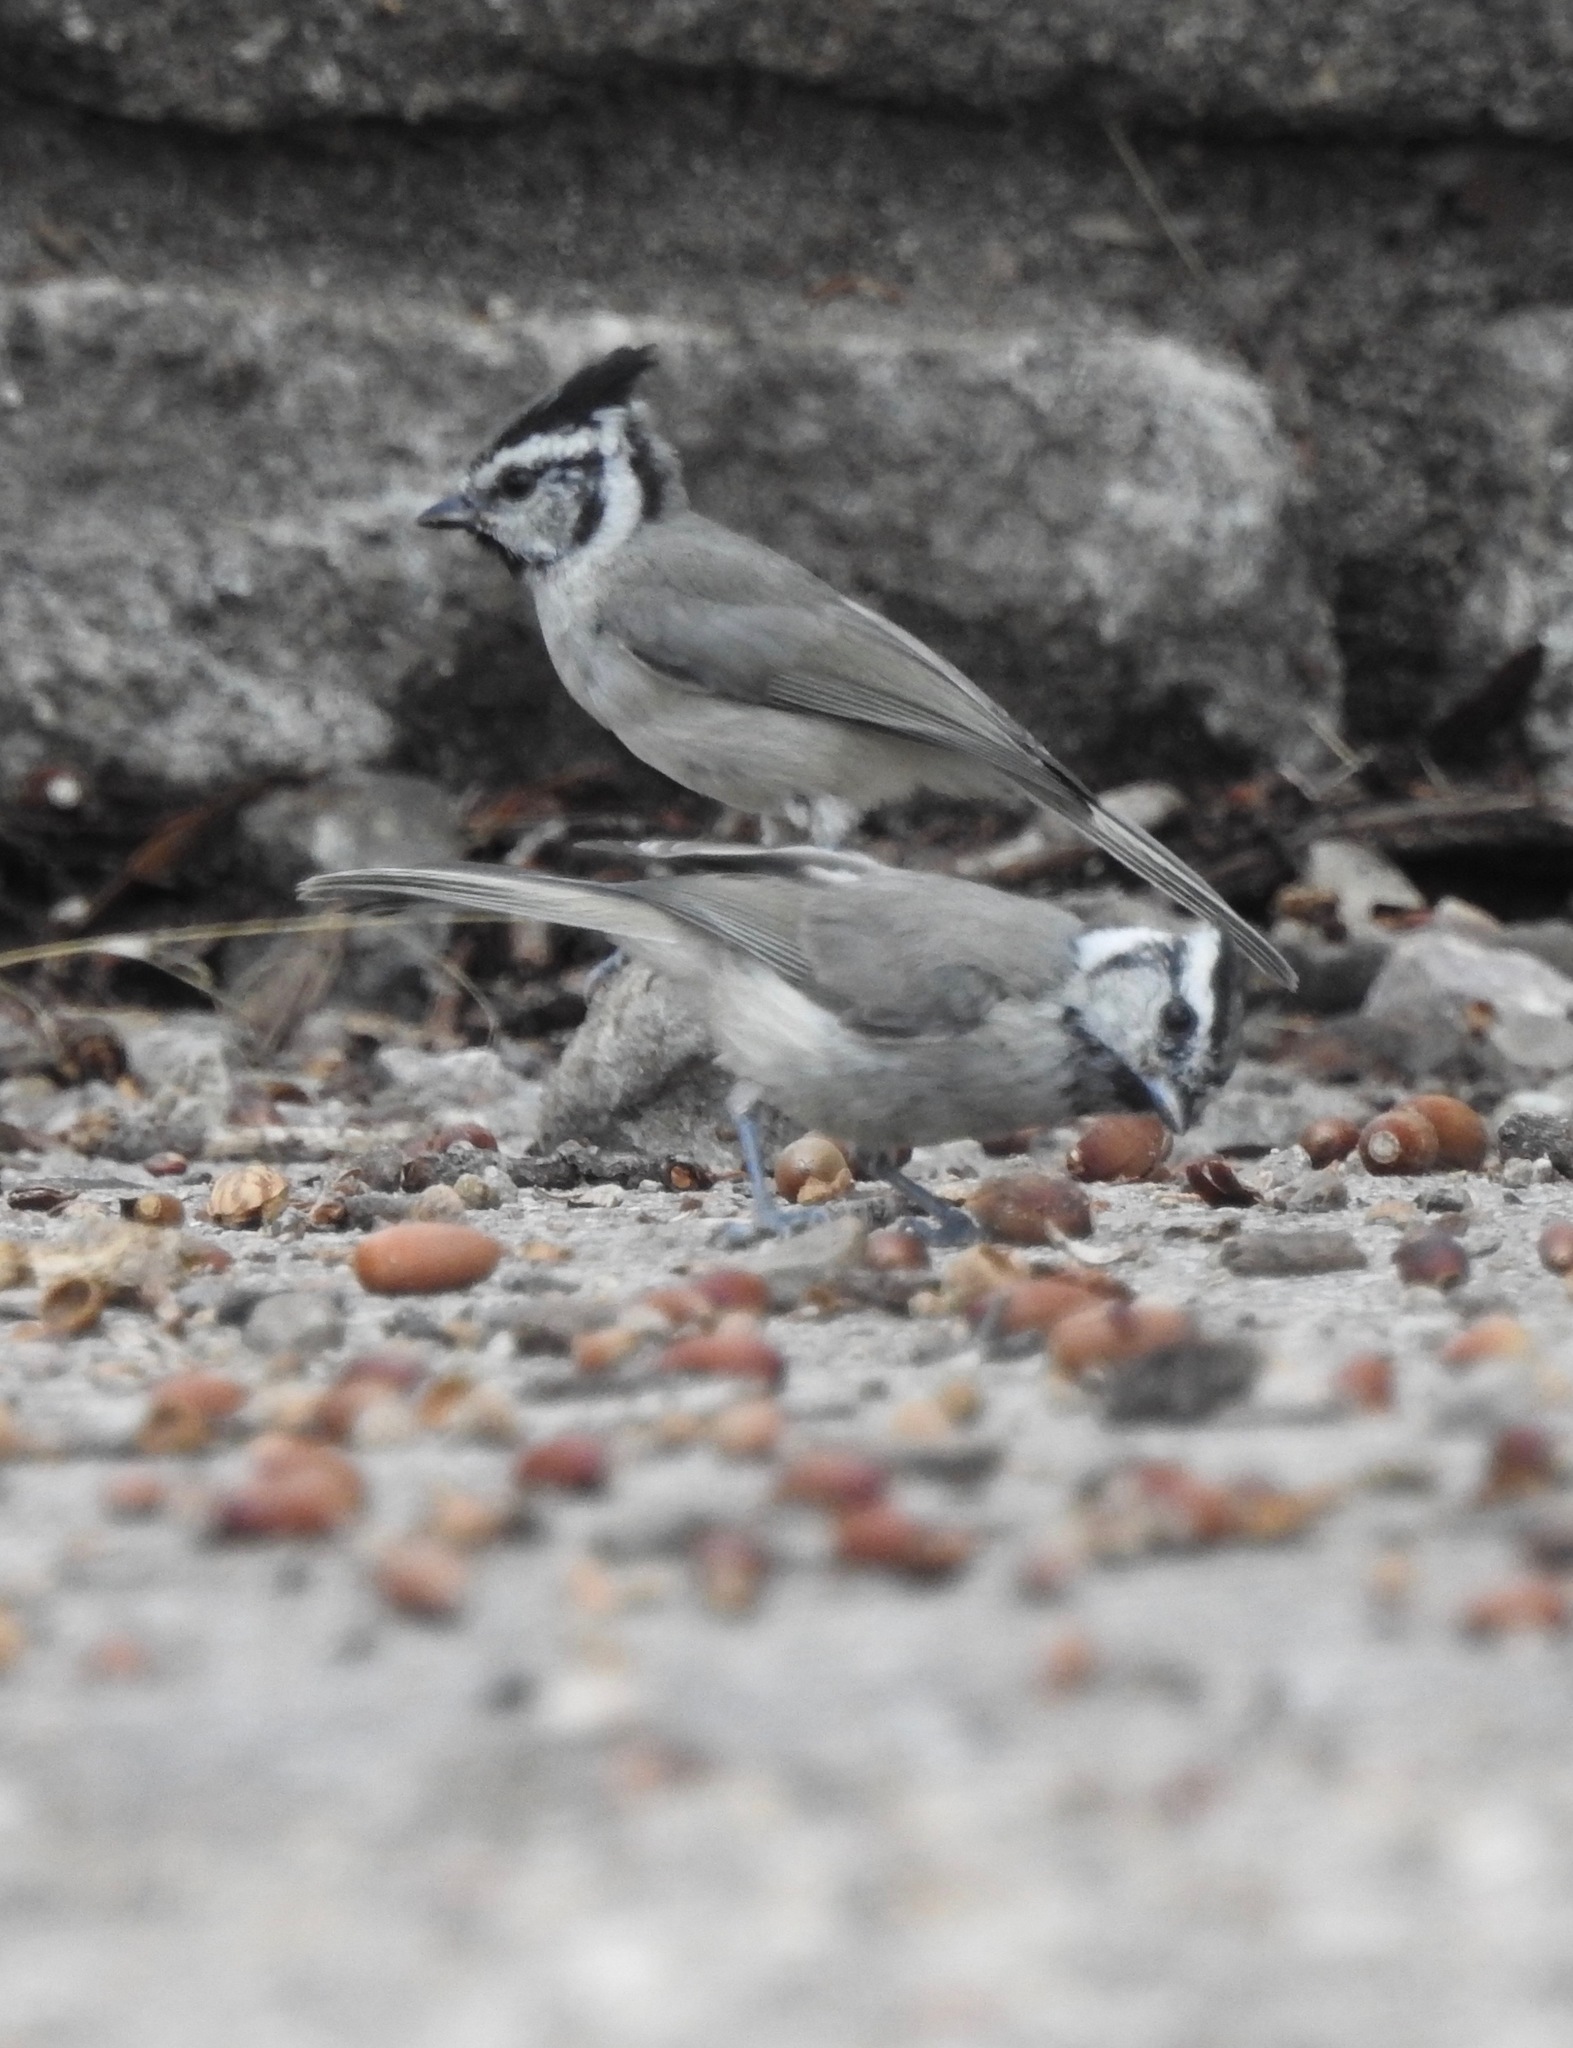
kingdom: Animalia
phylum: Chordata
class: Aves
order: Passeriformes
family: Paridae
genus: Baeolophus
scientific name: Baeolophus wollweberi
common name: Bridled titmouse
